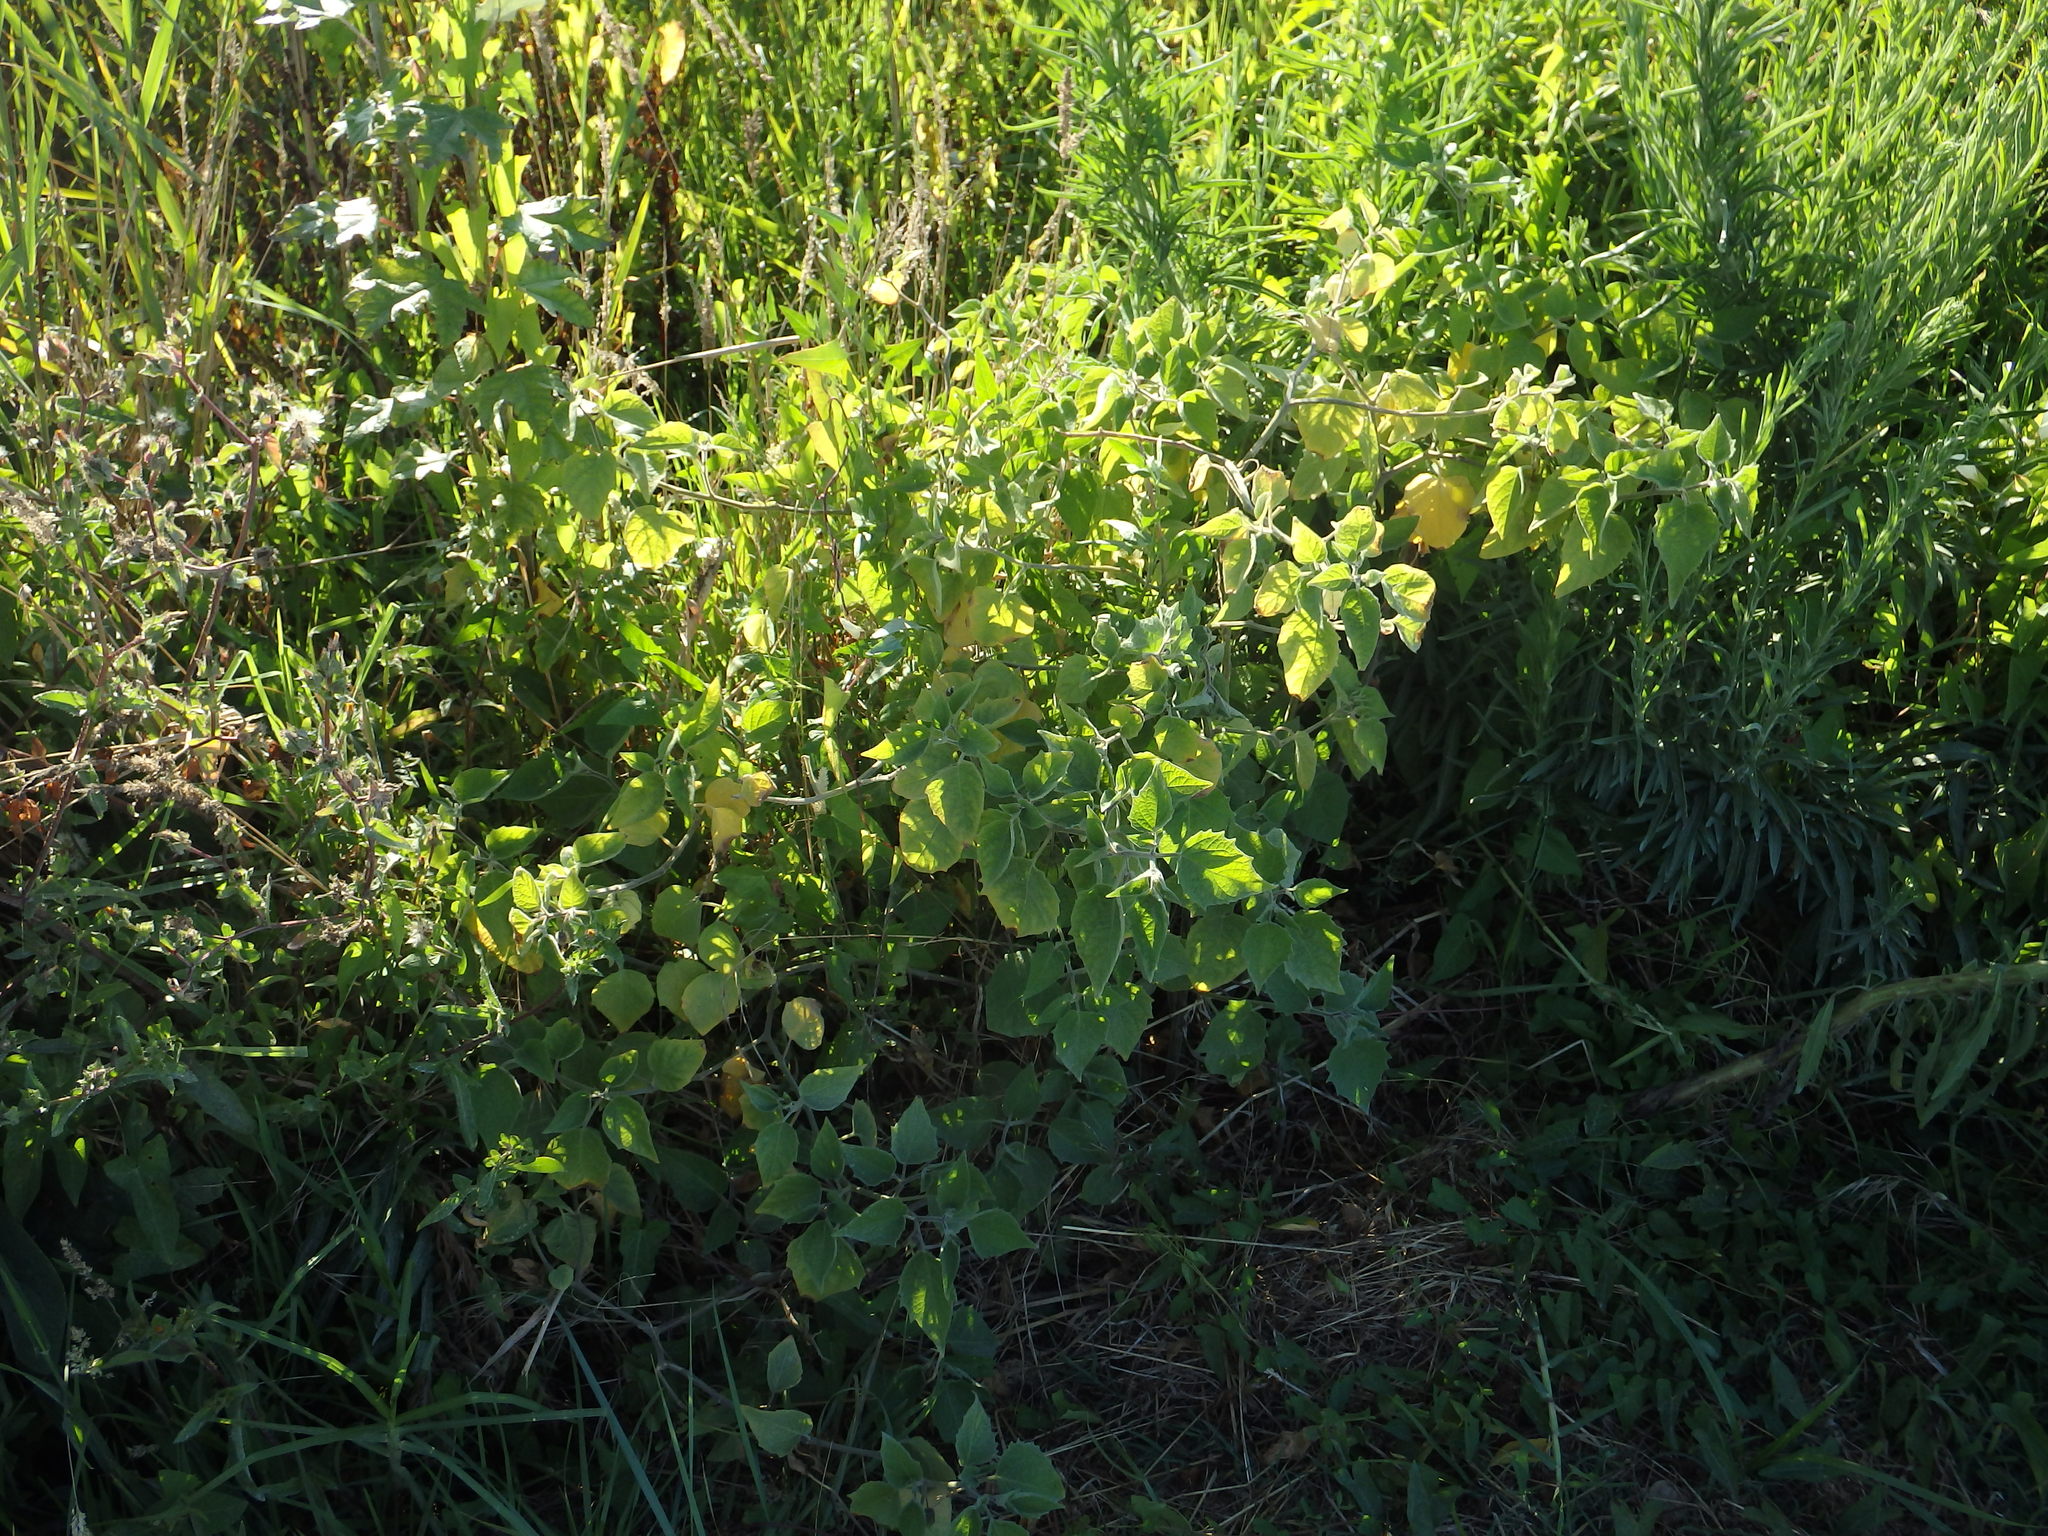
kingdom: Plantae
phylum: Tracheophyta
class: Magnoliopsida
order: Solanales
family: Solanaceae
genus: Physalis
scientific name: Physalis peruviana
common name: Cape-gooseberry
